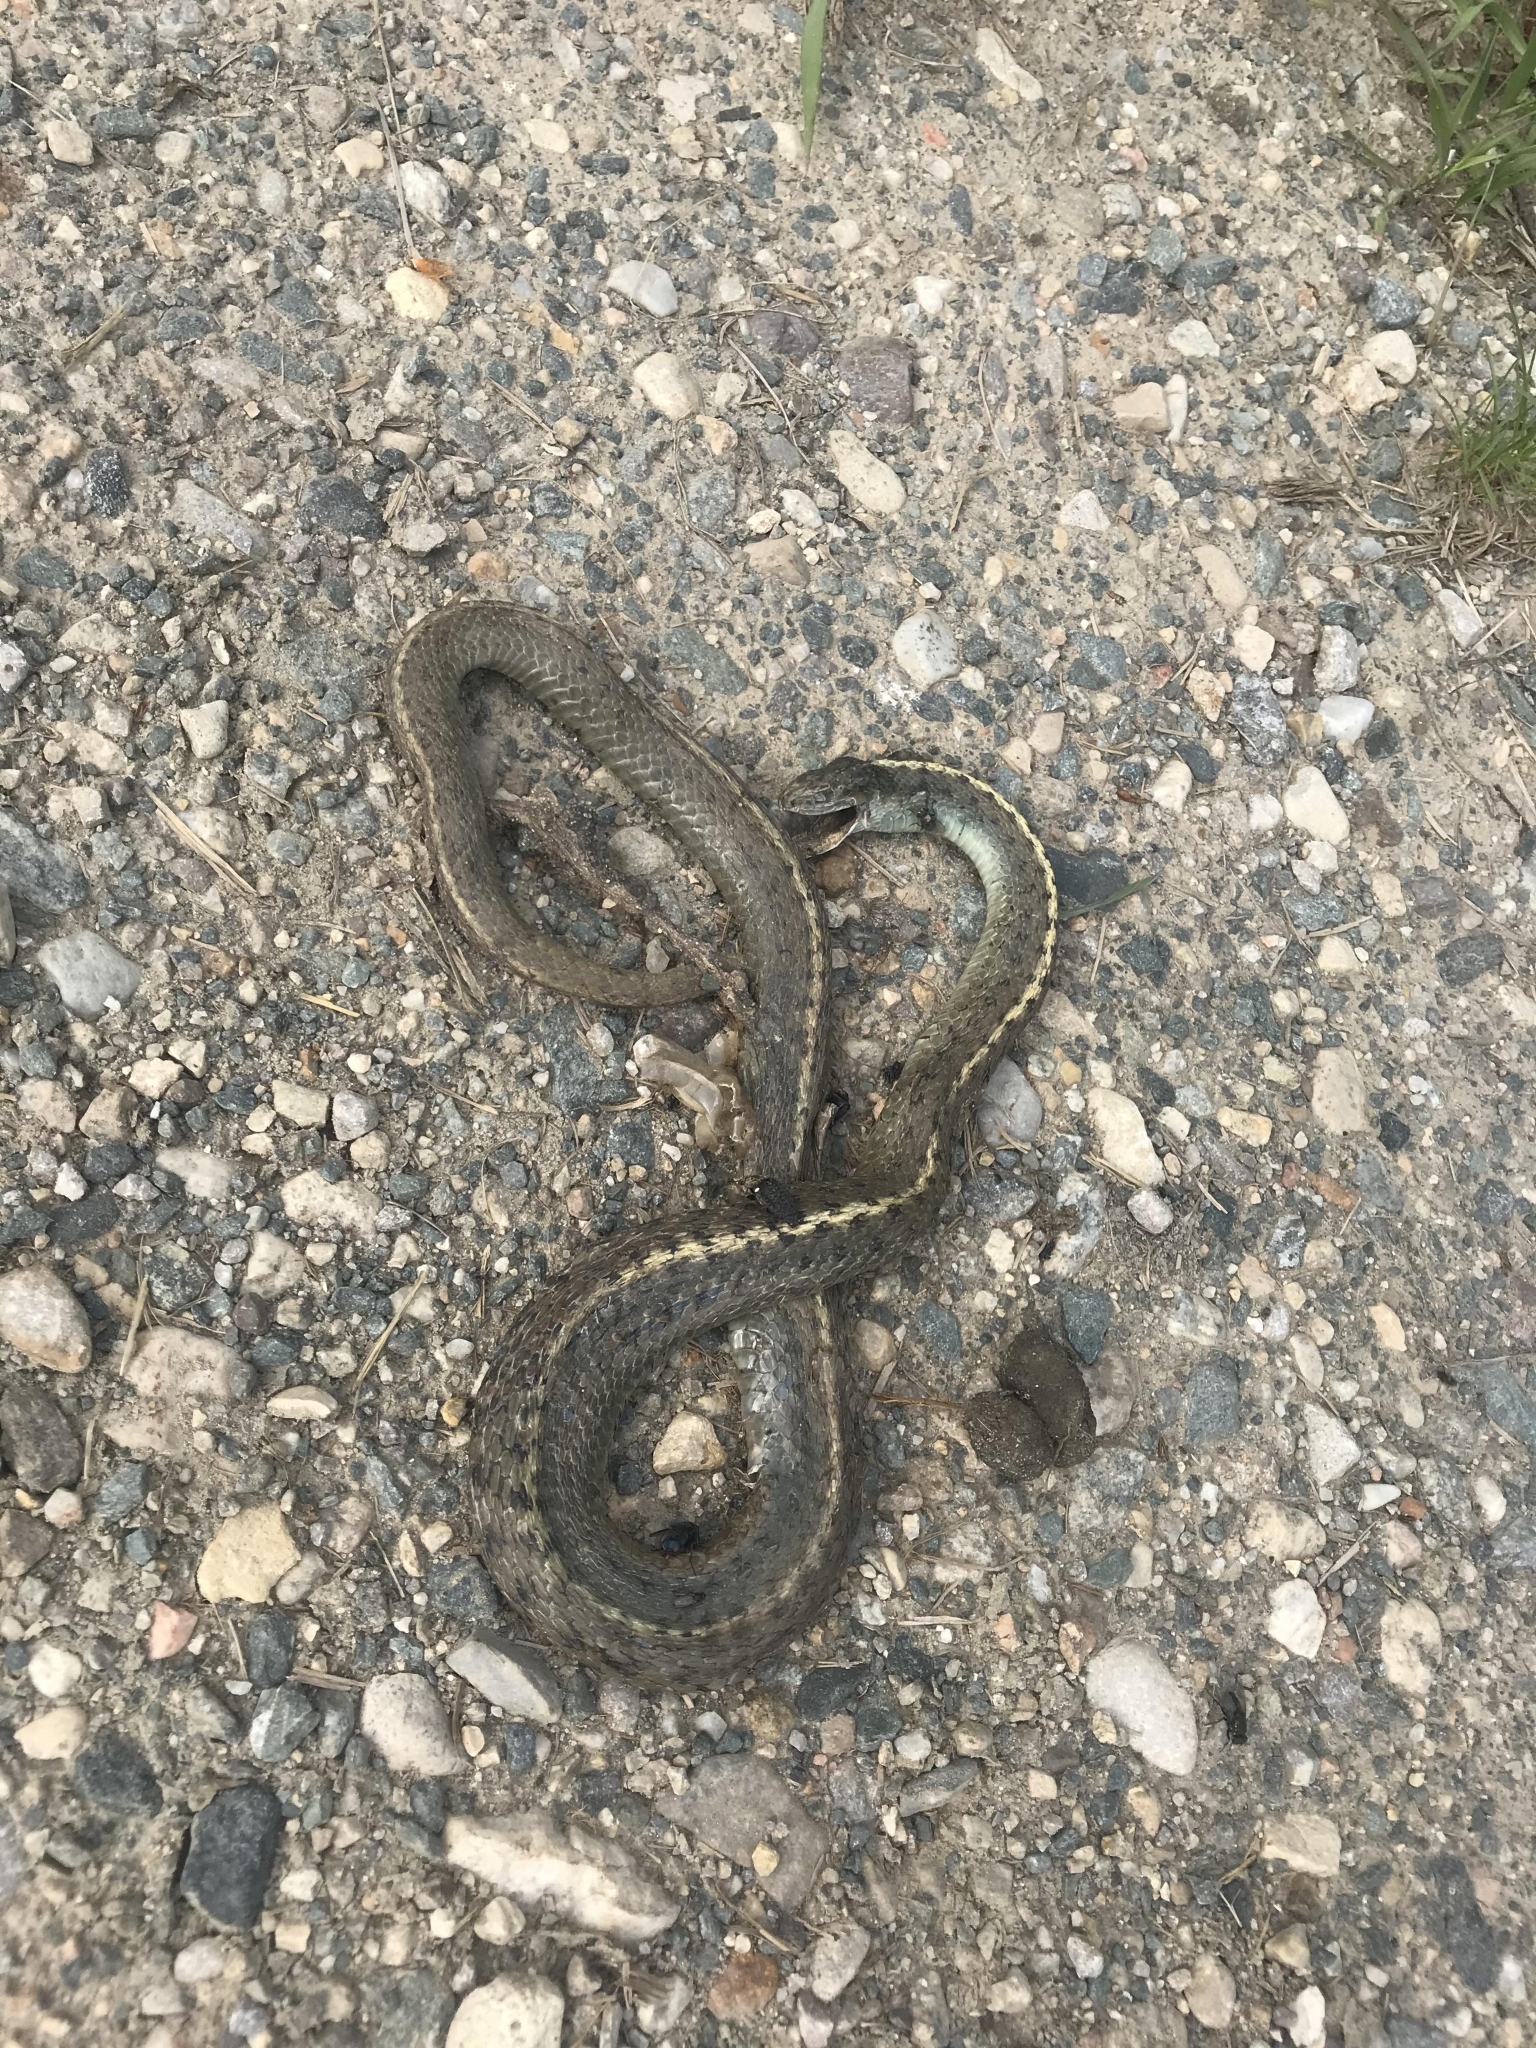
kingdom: Animalia
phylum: Chordata
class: Squamata
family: Colubridae
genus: Thamnophis
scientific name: Thamnophis elegans
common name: Western terrestrial garter snake
